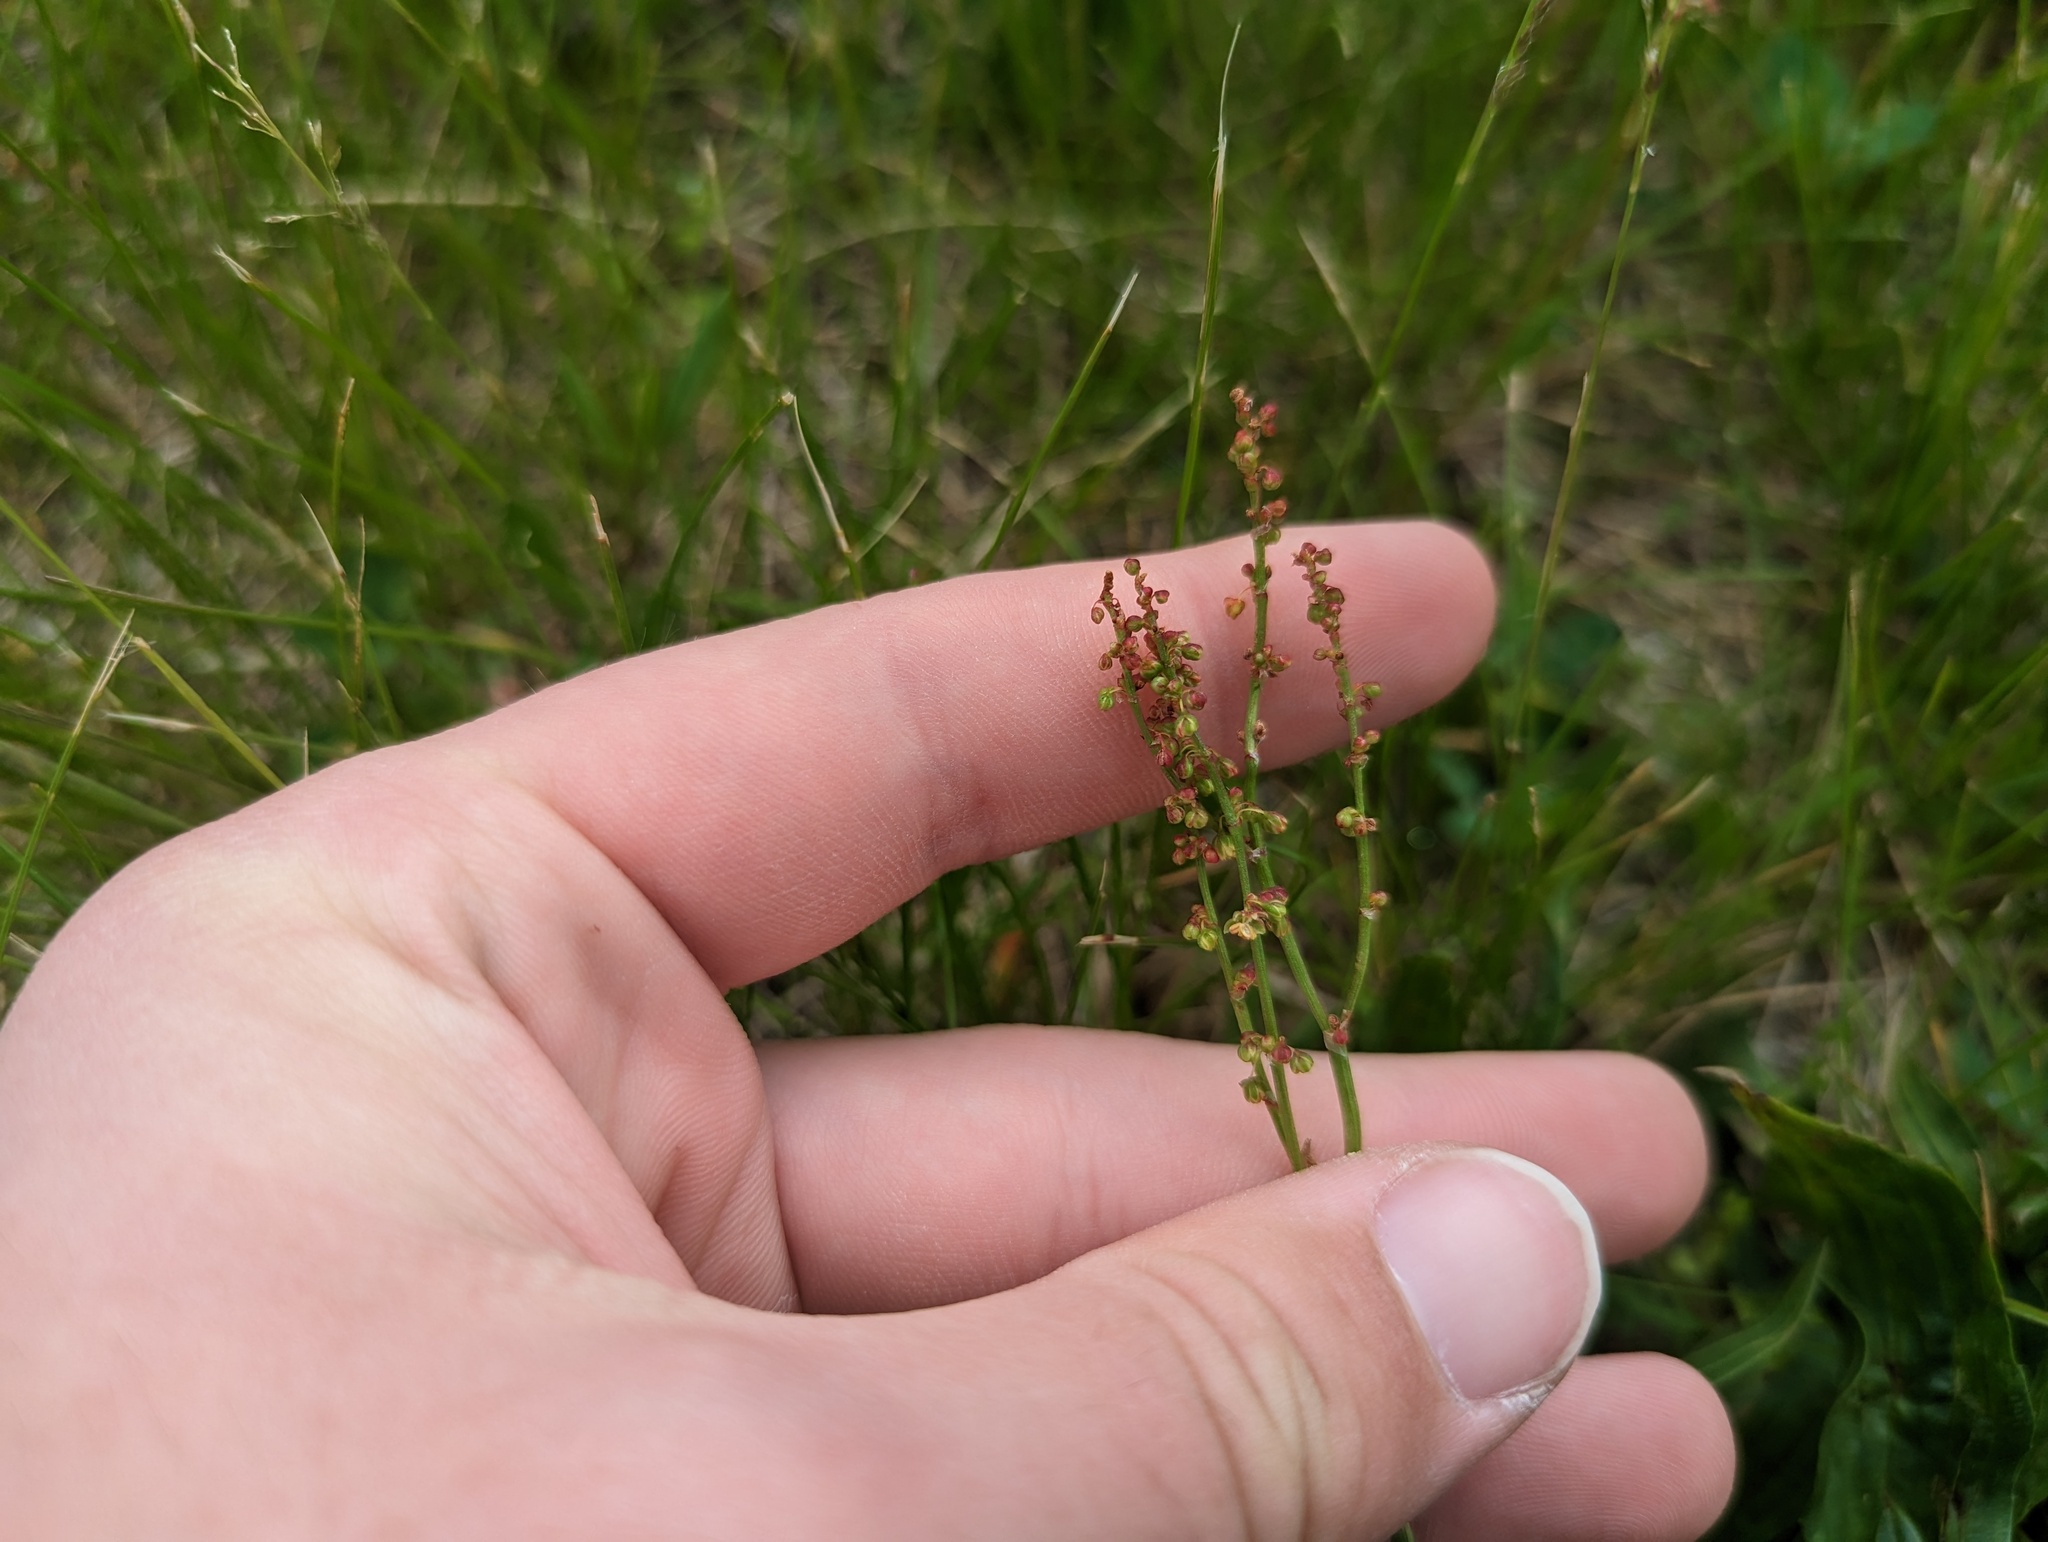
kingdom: Plantae
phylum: Tracheophyta
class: Magnoliopsida
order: Caryophyllales
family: Polygonaceae
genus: Rumex
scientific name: Rumex acetosella
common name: Common sheep sorrel
